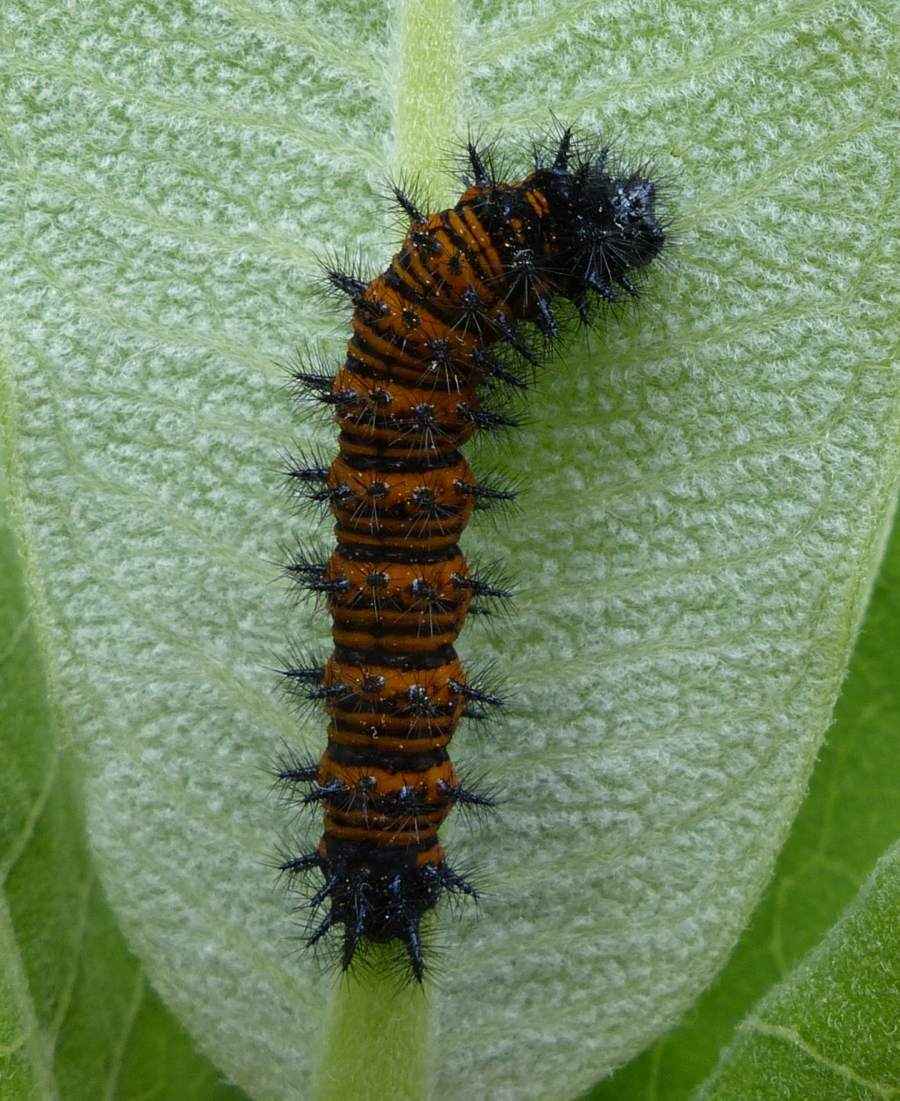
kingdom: Animalia
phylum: Arthropoda
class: Insecta
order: Lepidoptera
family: Nymphalidae
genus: Euphydryas
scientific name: Euphydryas phaeton
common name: Baltimore checkerspot
